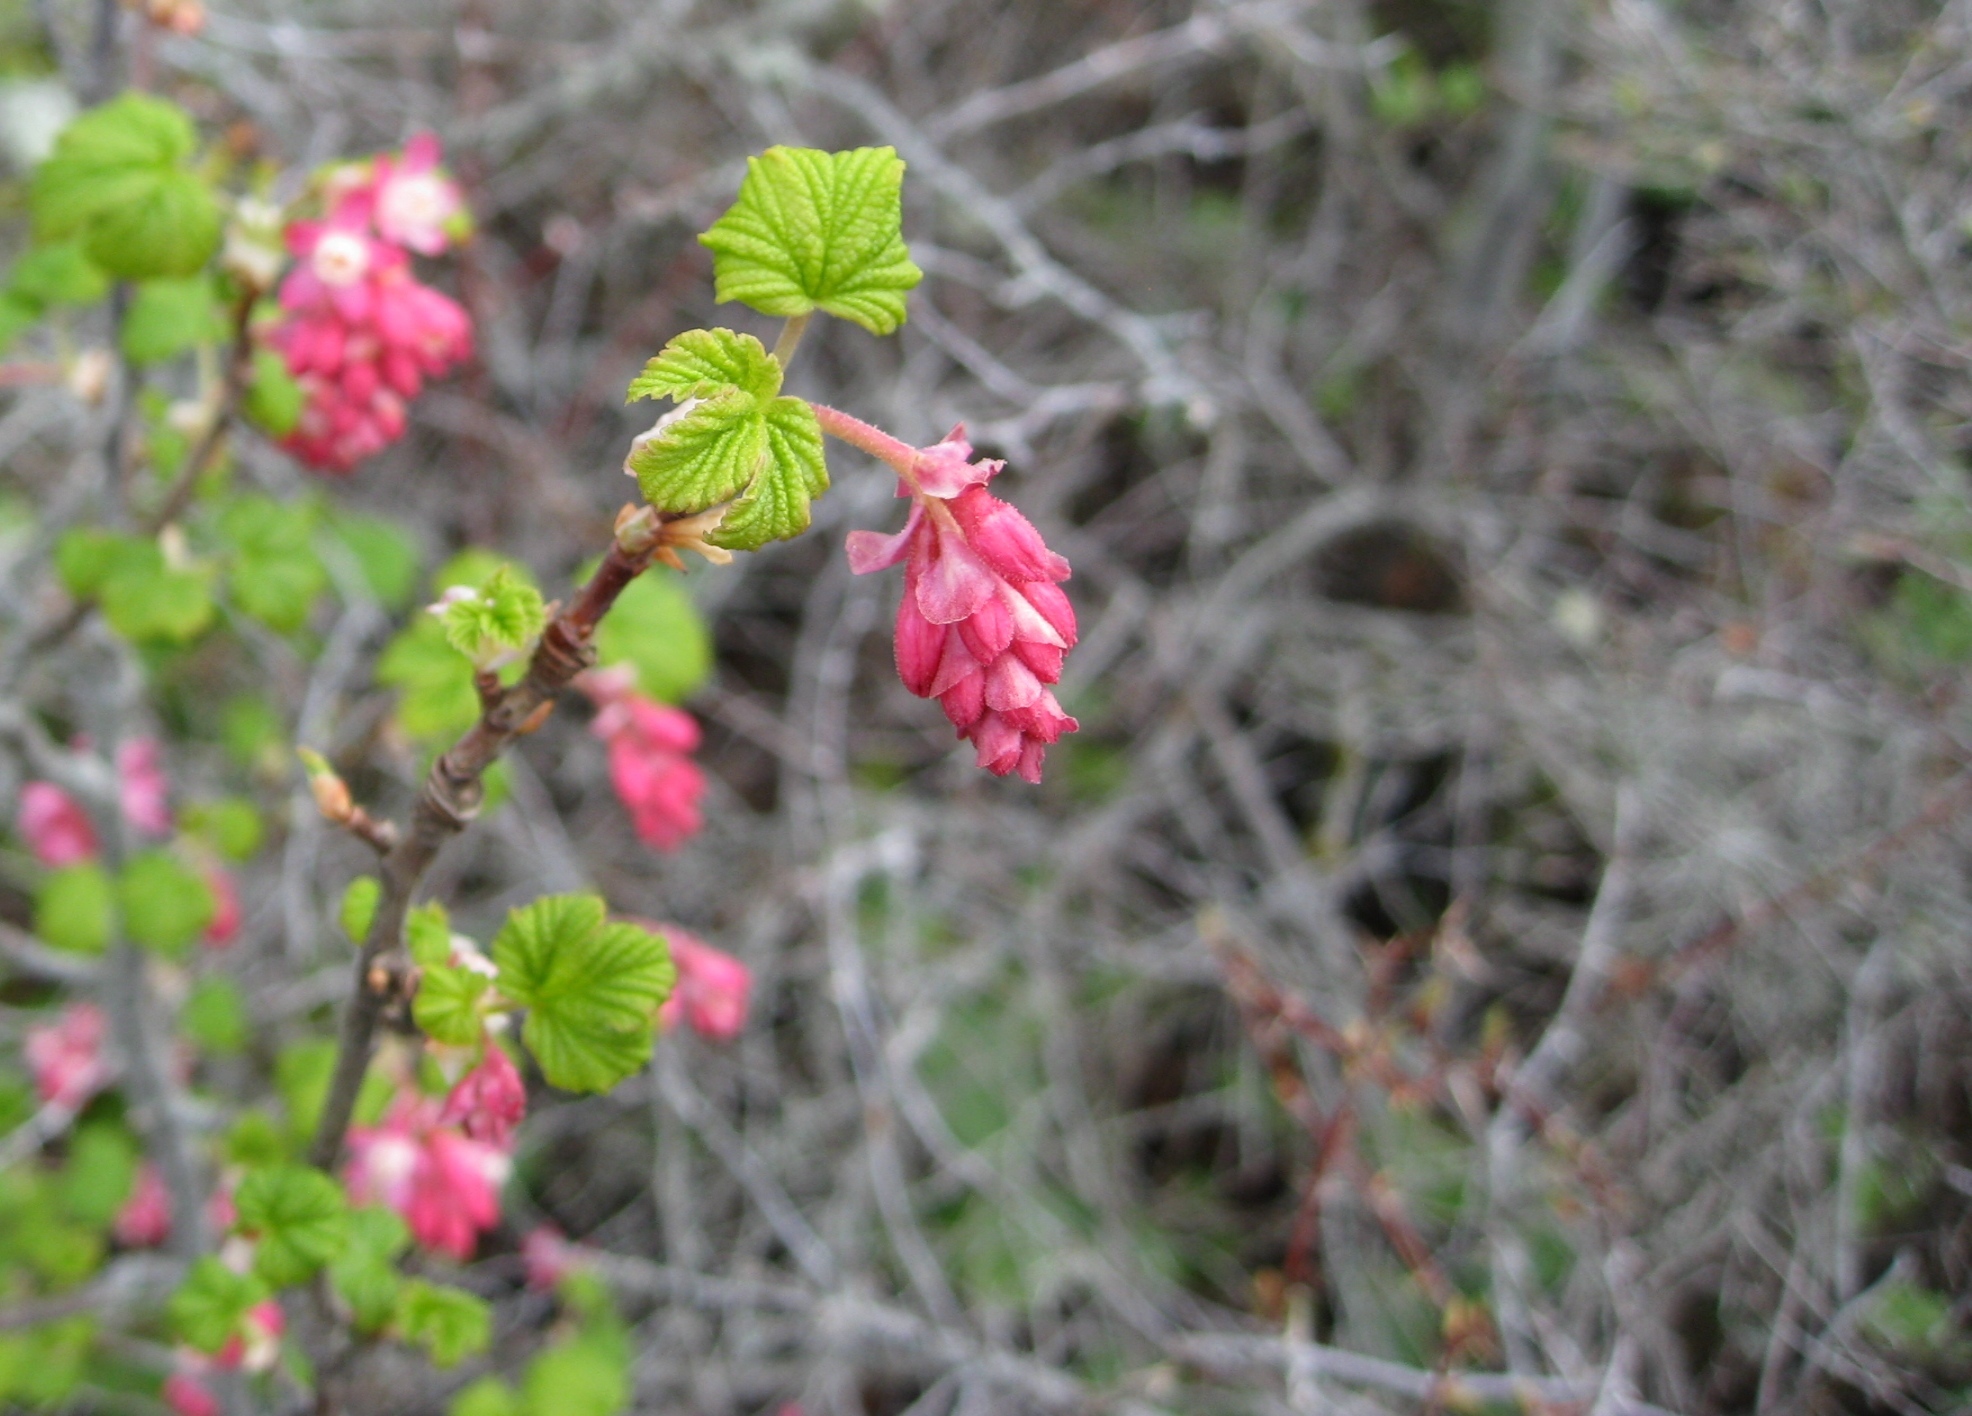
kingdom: Plantae
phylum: Tracheophyta
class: Magnoliopsida
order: Saxifragales
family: Grossulariaceae
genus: Ribes
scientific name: Ribes sanguineum
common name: Flowering currant
